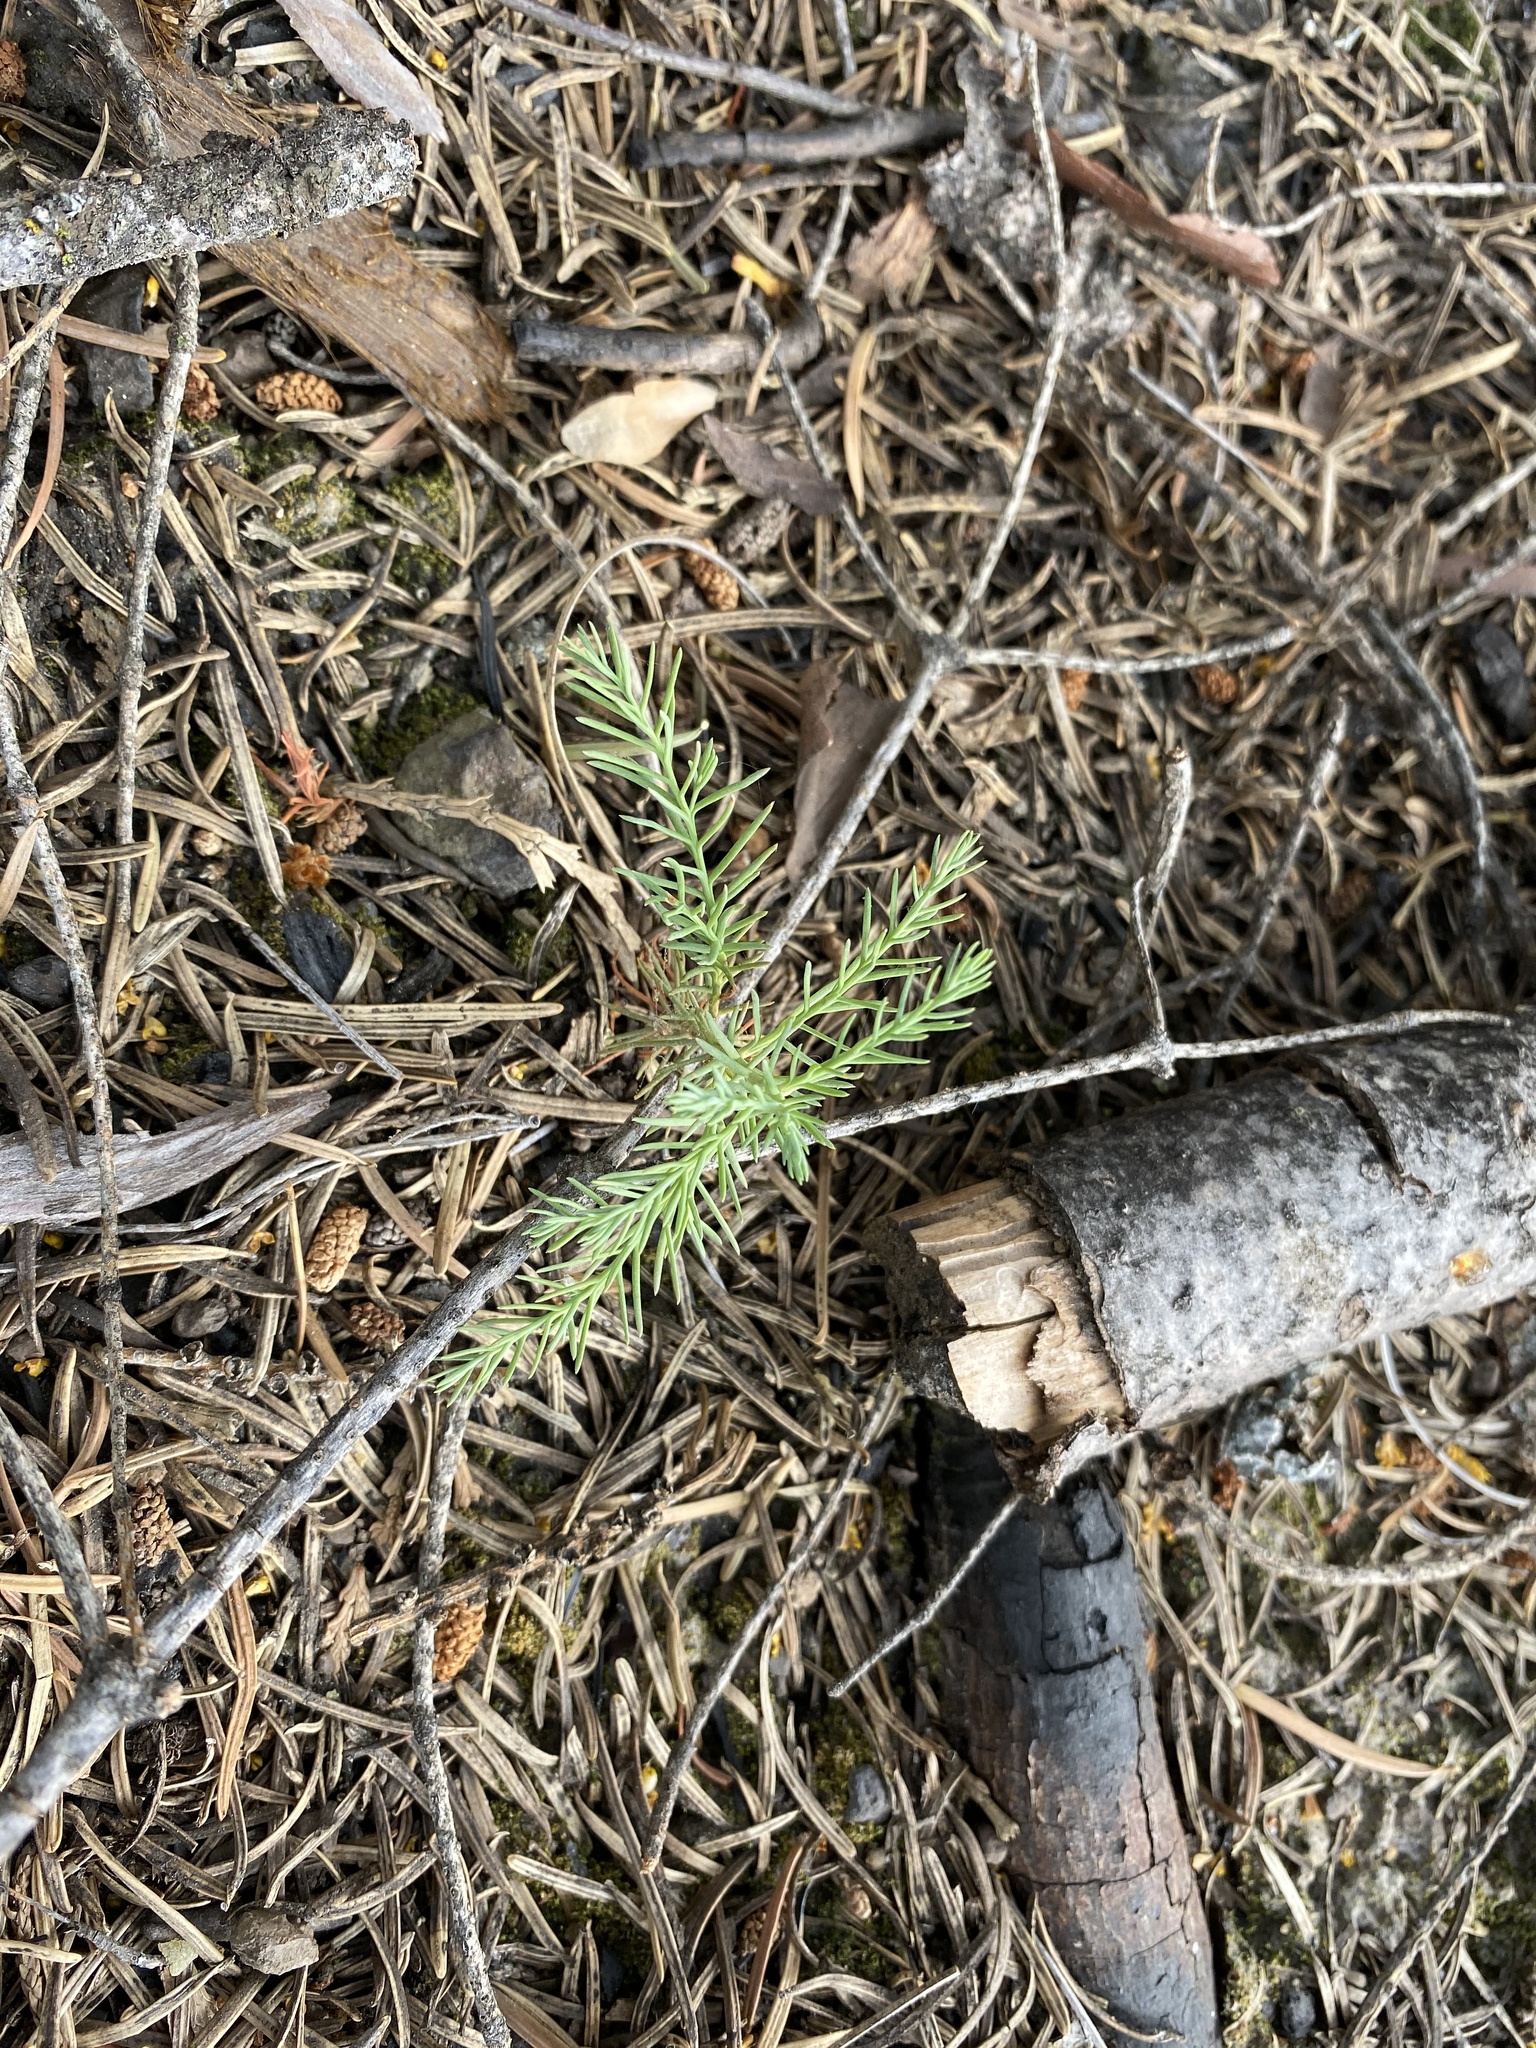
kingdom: Plantae
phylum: Tracheophyta
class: Pinopsida
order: Pinales
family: Cupressaceae
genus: Sequoiadendron
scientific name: Sequoiadendron giganteum
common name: Wellingtonia
